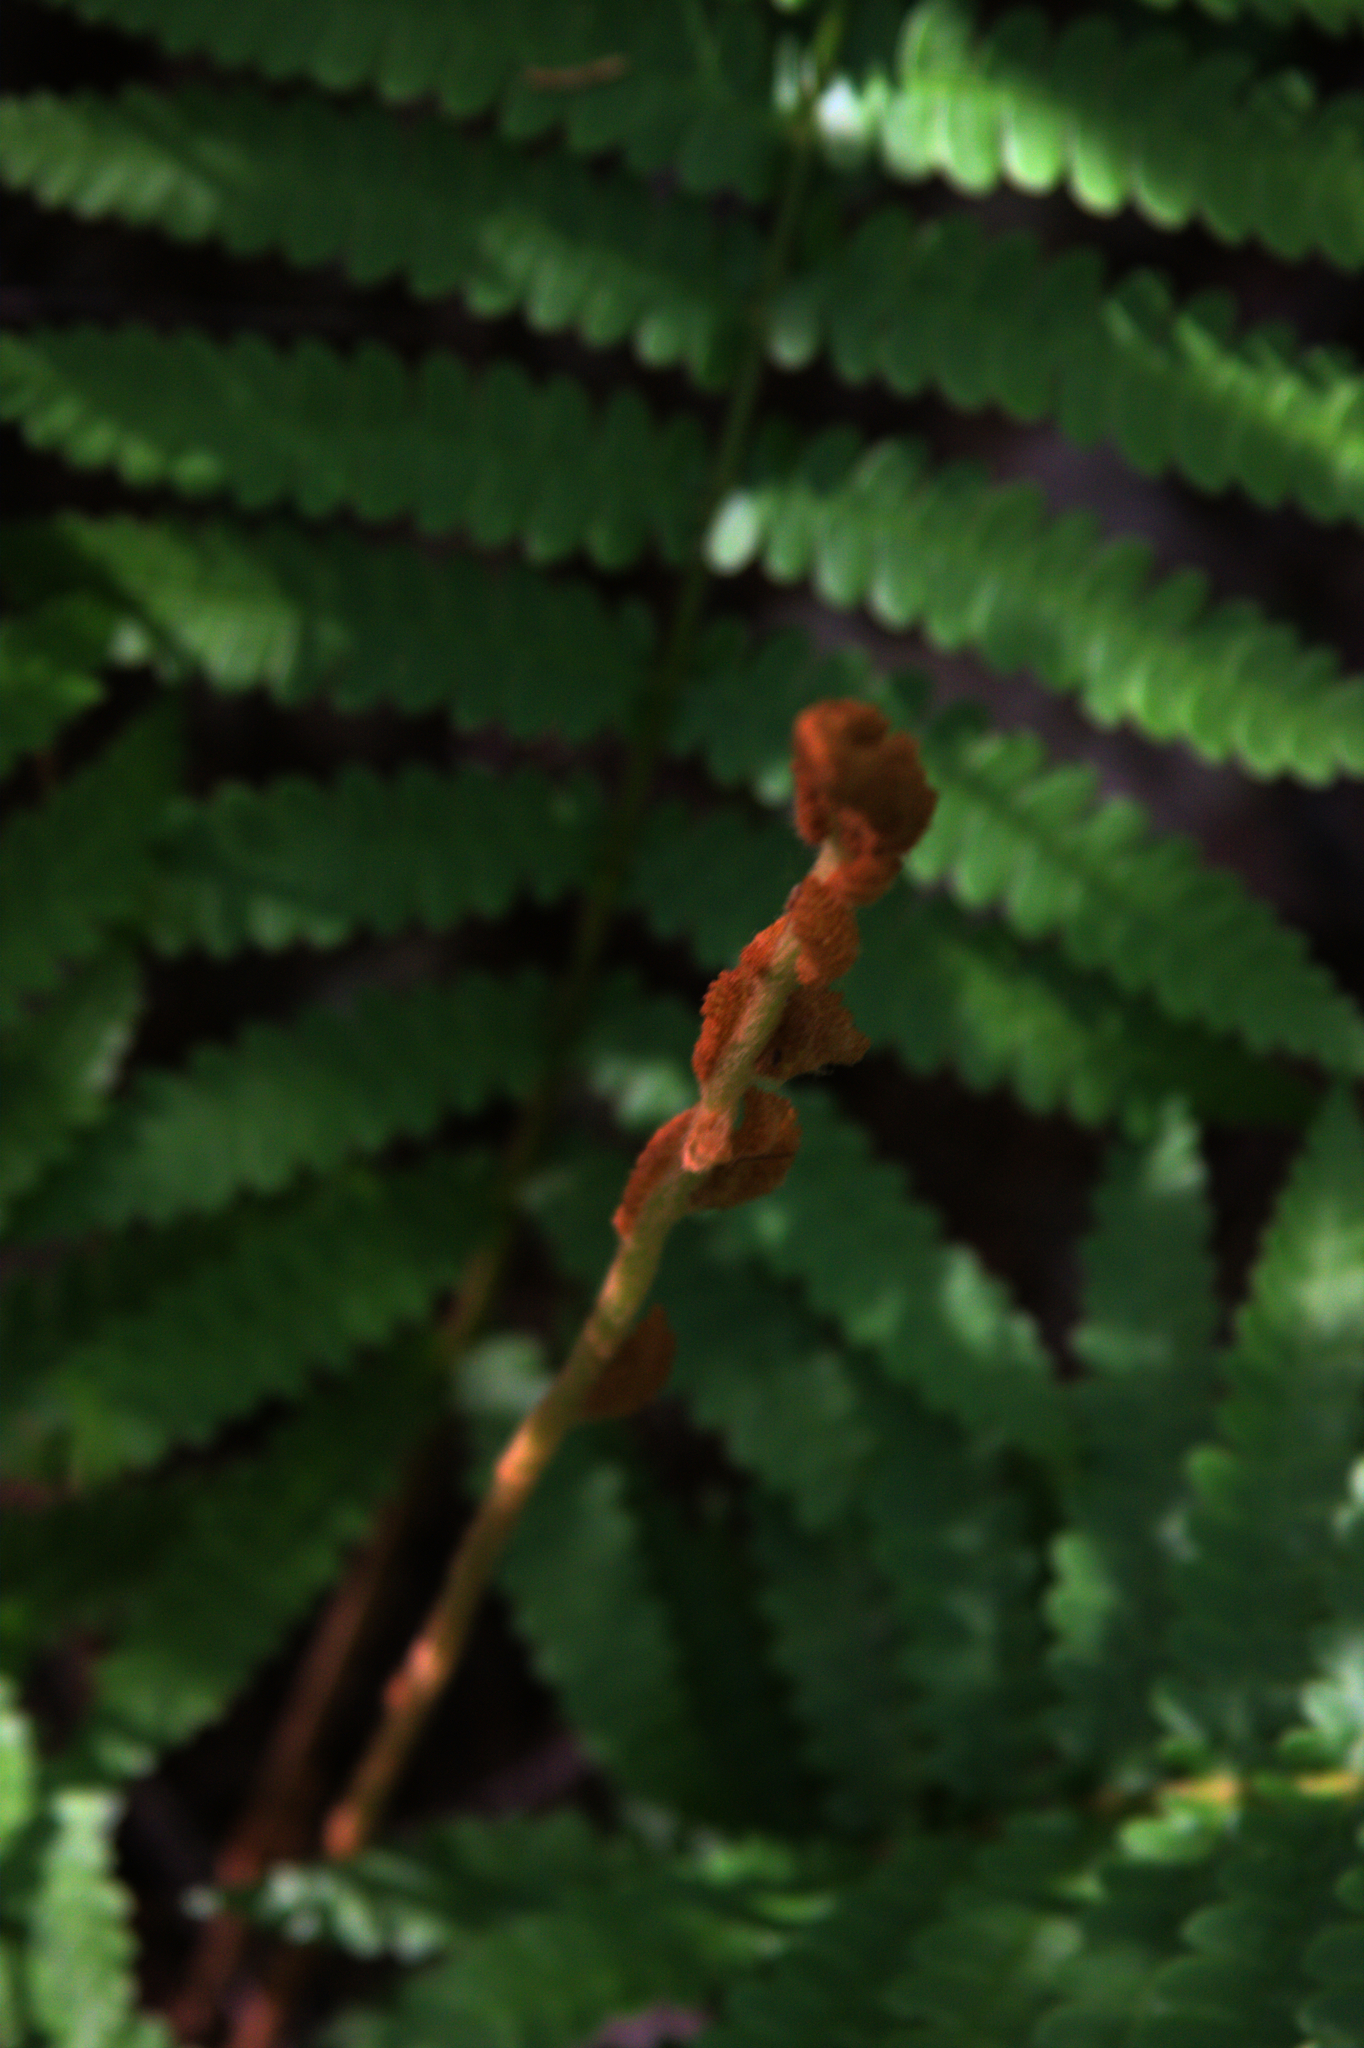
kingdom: Plantae
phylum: Tracheophyta
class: Polypodiopsida
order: Osmundales
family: Osmundaceae
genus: Osmundastrum
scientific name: Osmundastrum cinnamomeum
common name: Cinnamon fern
